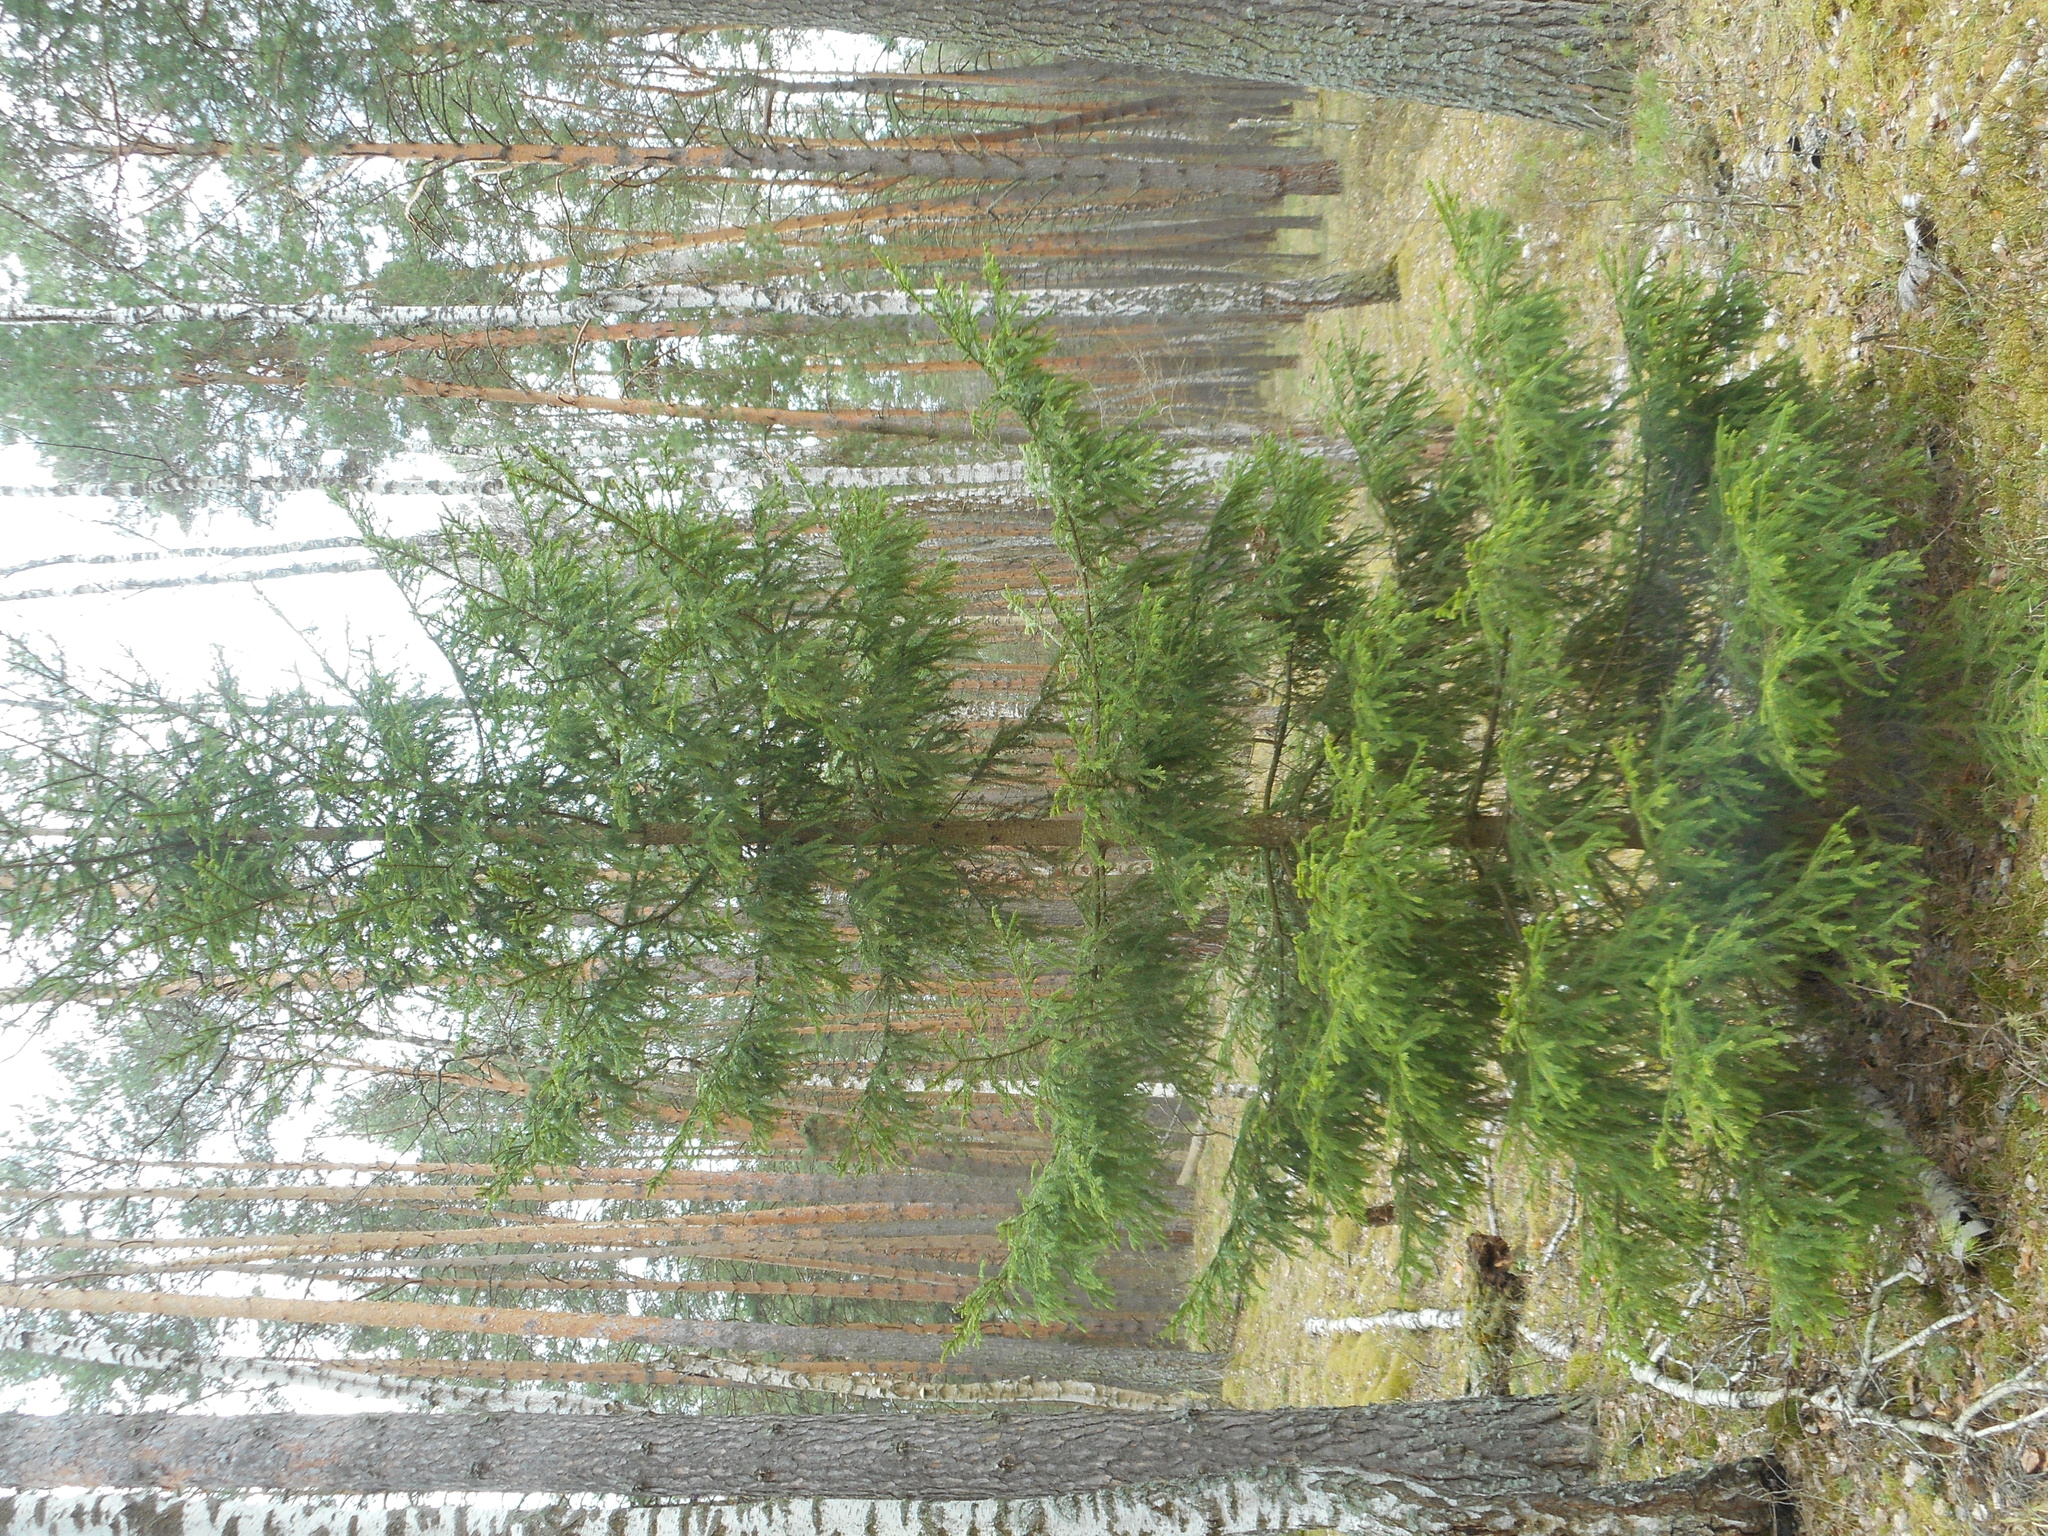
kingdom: Plantae
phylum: Tracheophyta
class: Pinopsida
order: Pinales
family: Pinaceae
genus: Picea
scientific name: Picea abies
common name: Norway spruce
